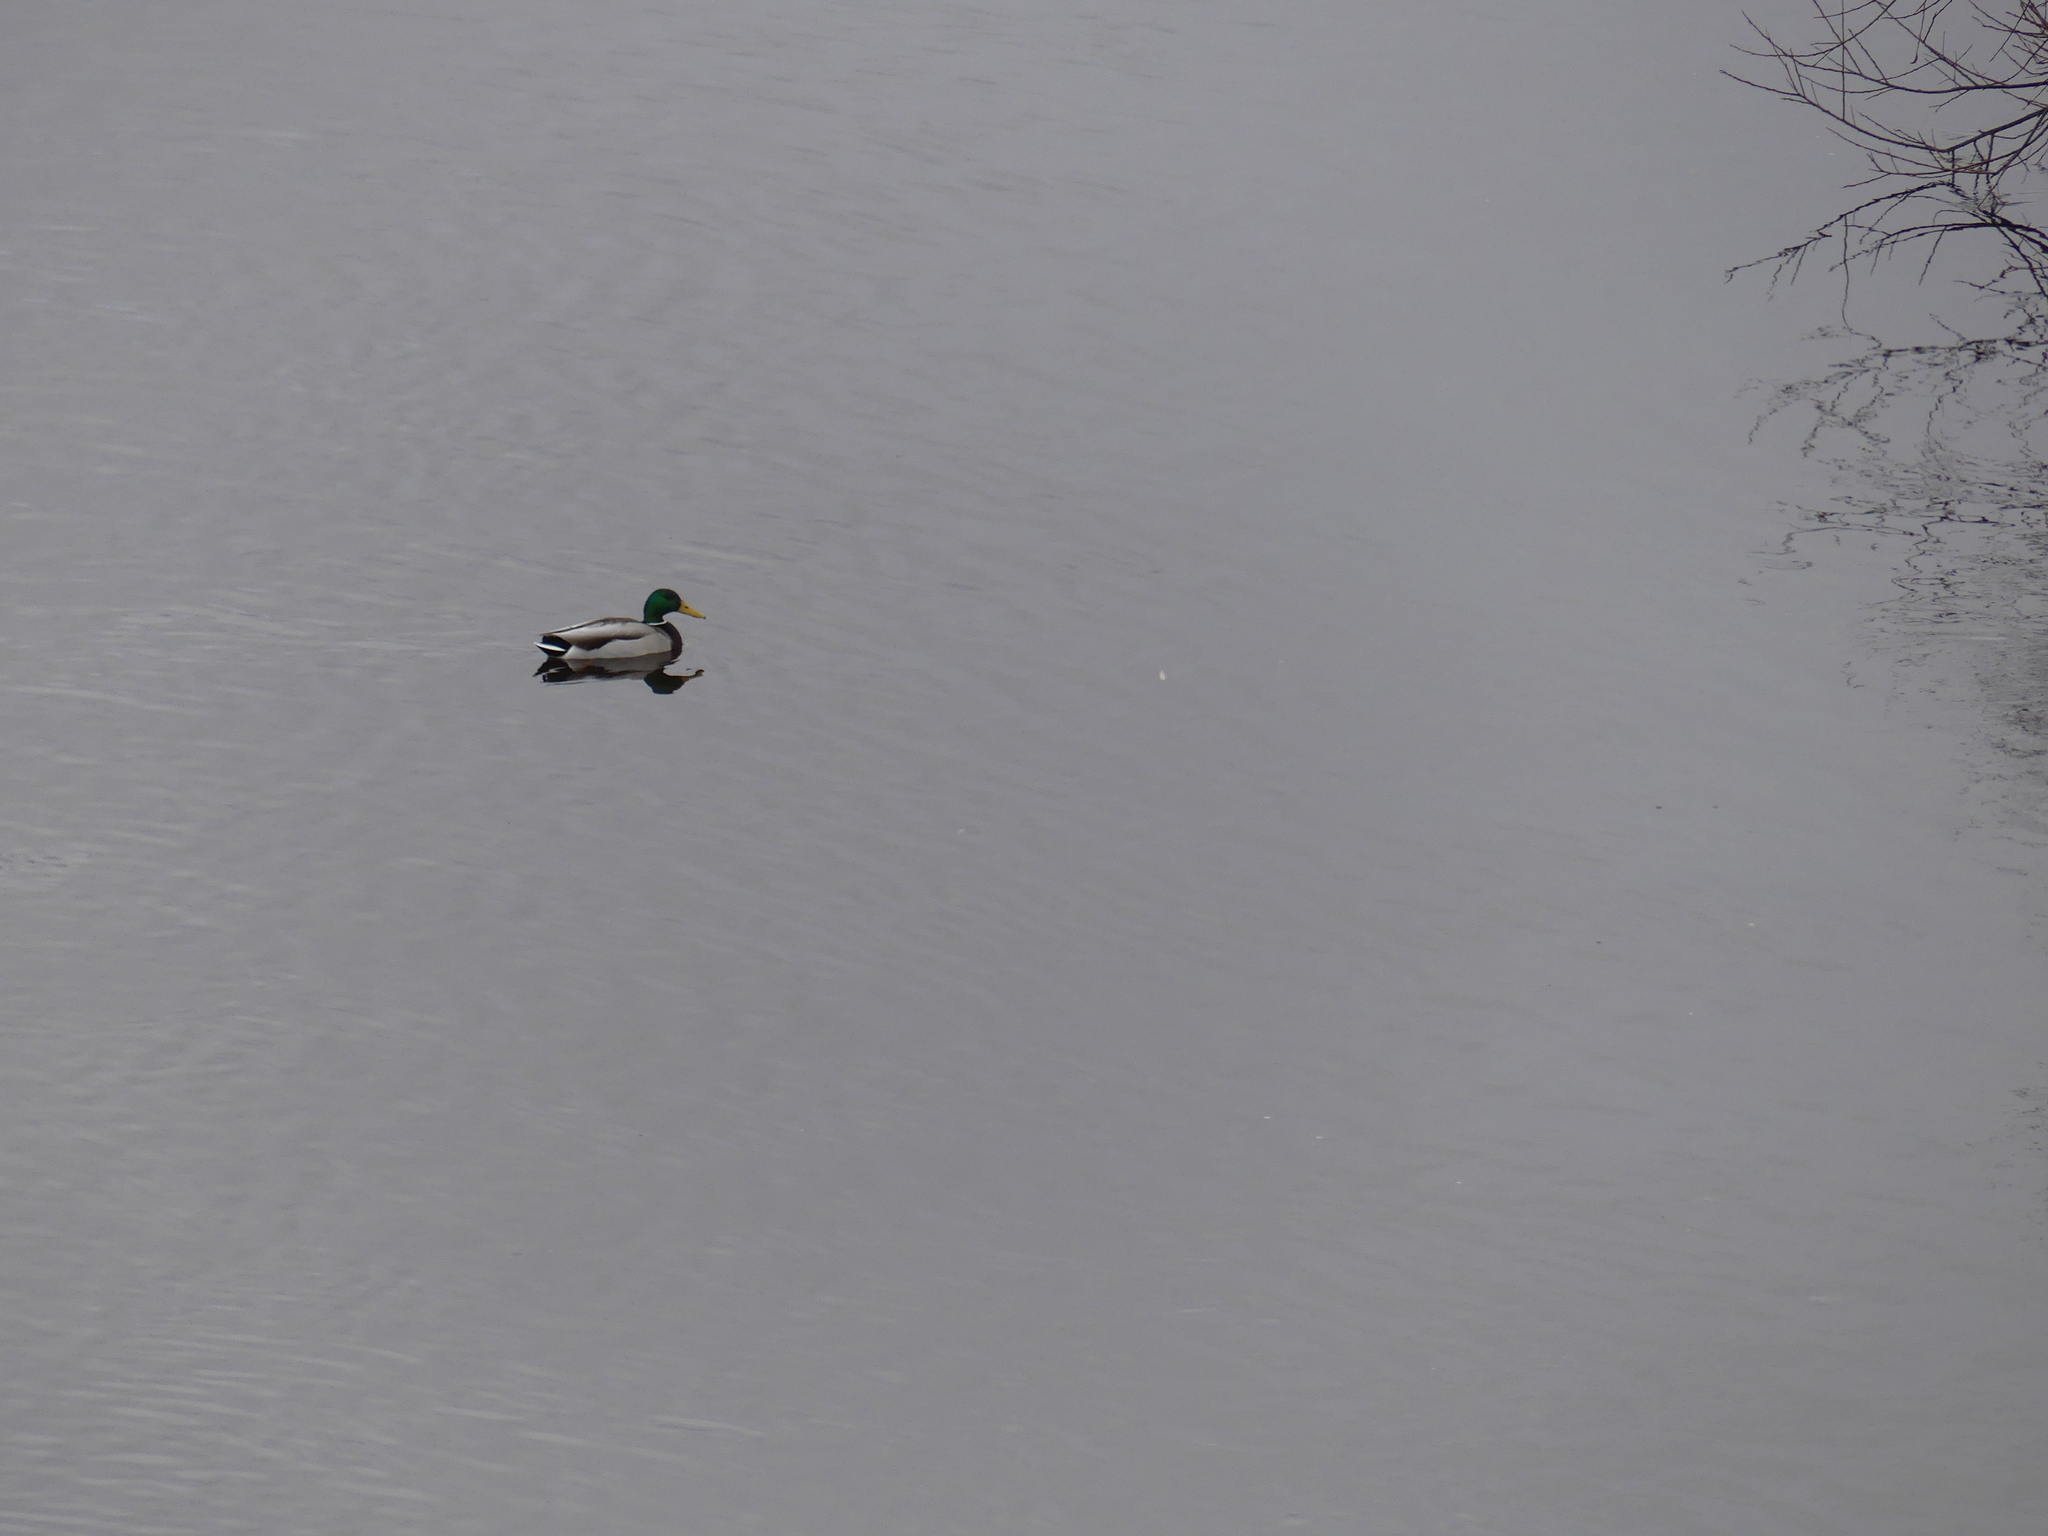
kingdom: Animalia
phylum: Chordata
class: Aves
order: Anseriformes
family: Anatidae
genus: Anas
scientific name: Anas platyrhynchos
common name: Mallard
